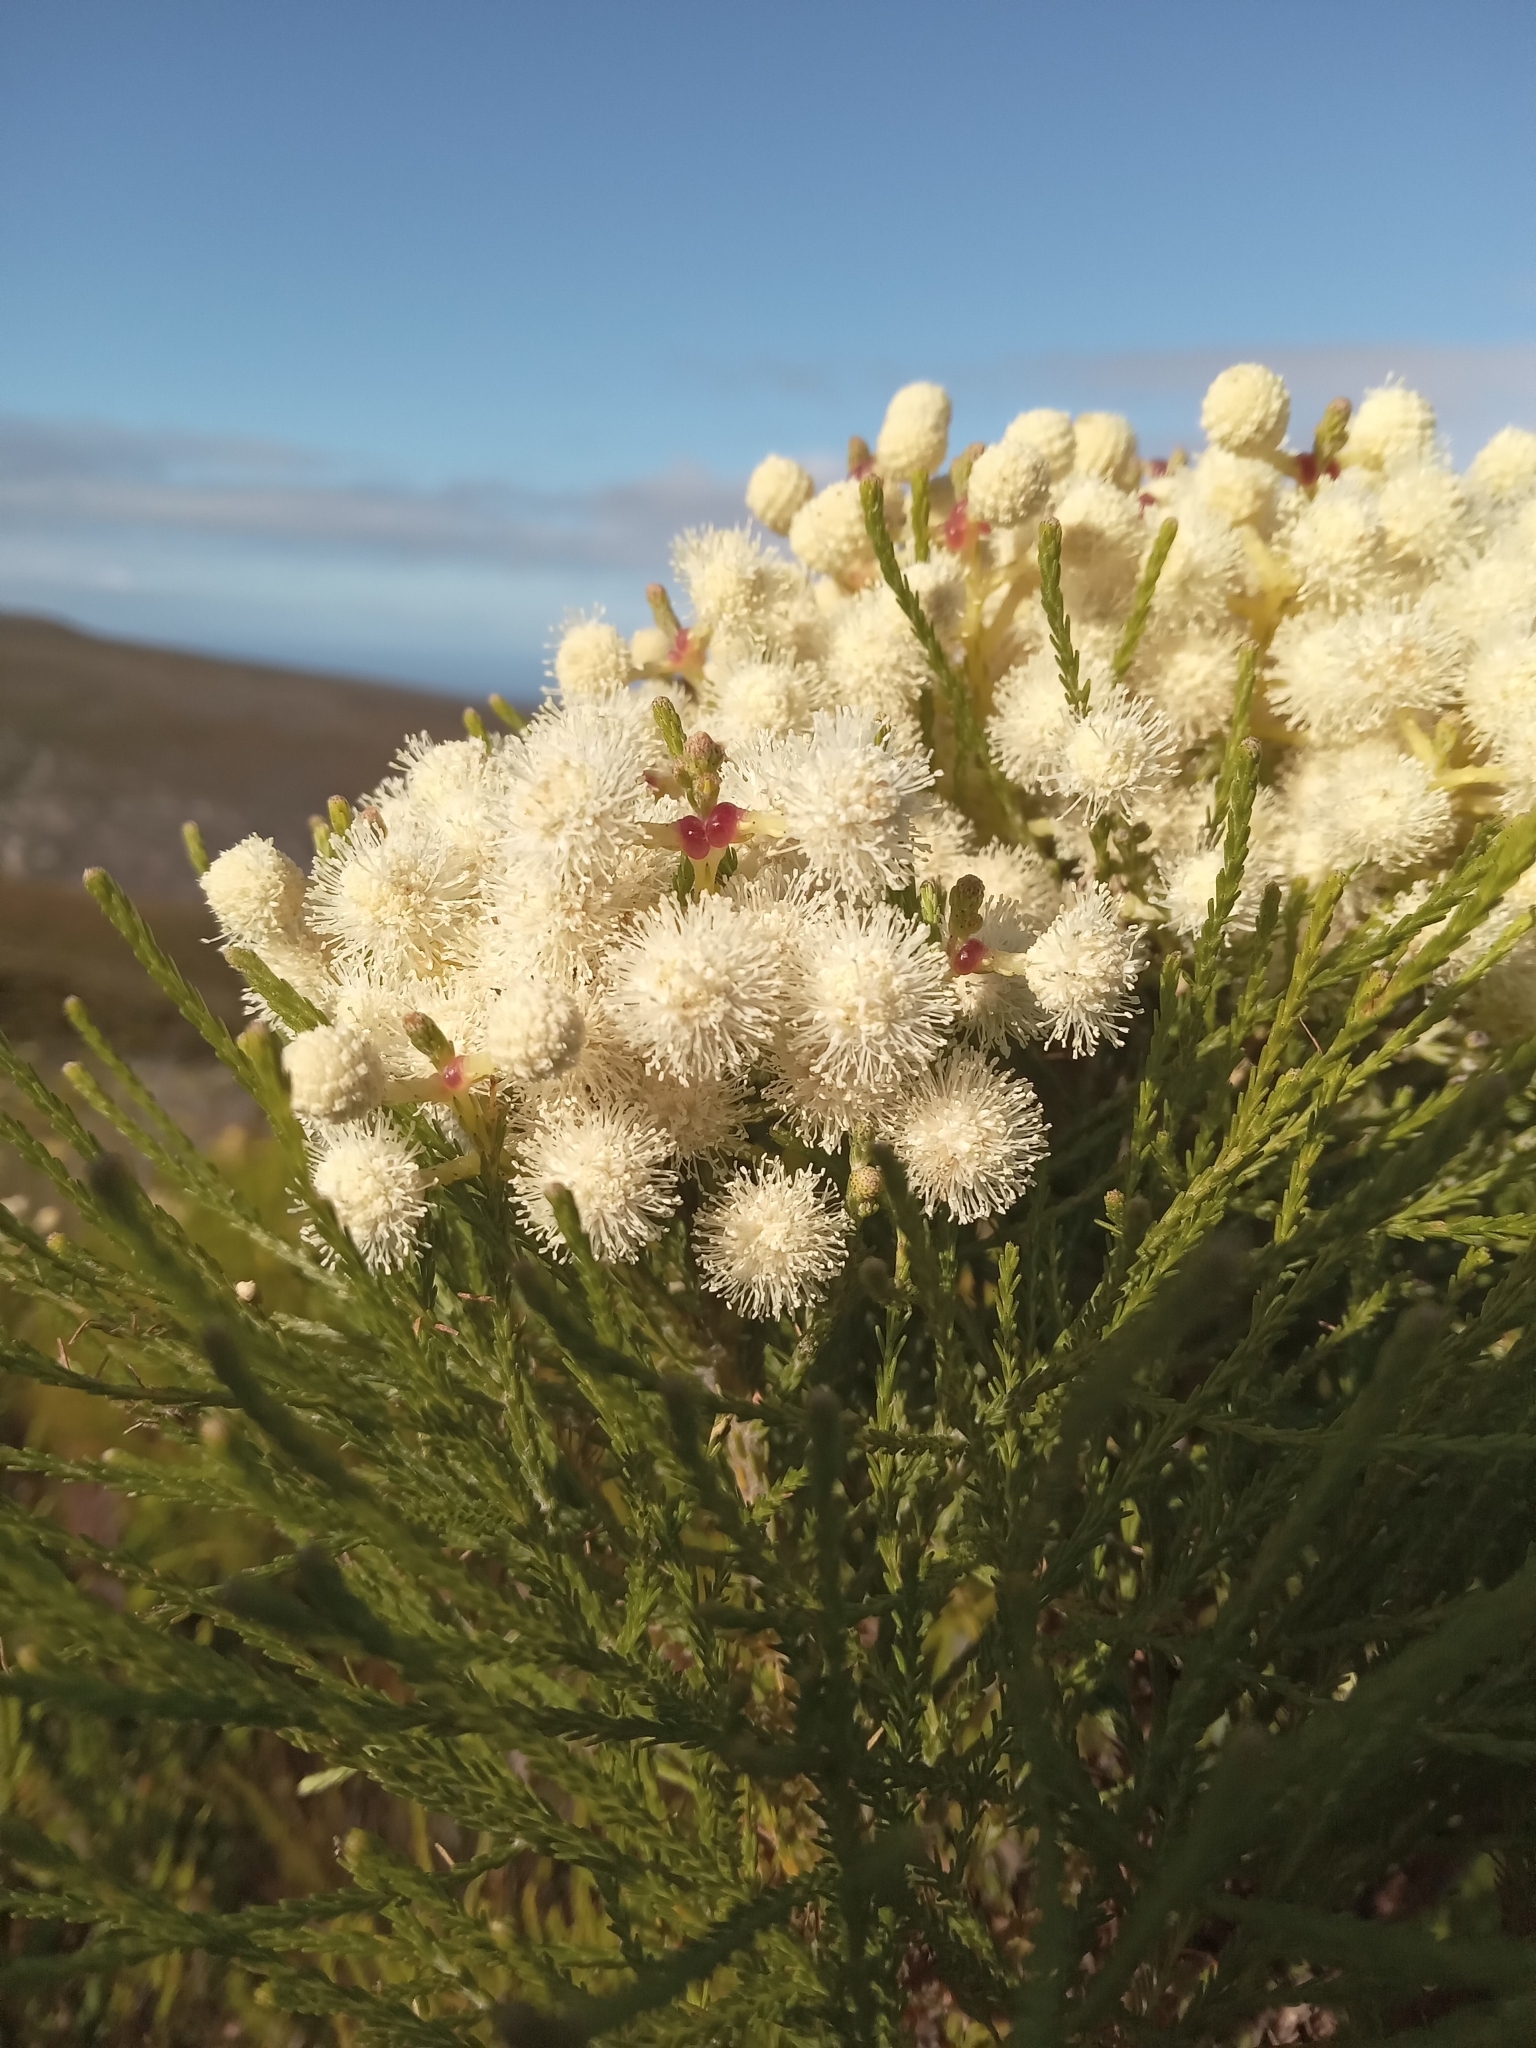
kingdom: Plantae
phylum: Tracheophyta
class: Magnoliopsida
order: Bruniales
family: Bruniaceae
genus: Berzelia
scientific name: Berzelia lanuginosa
